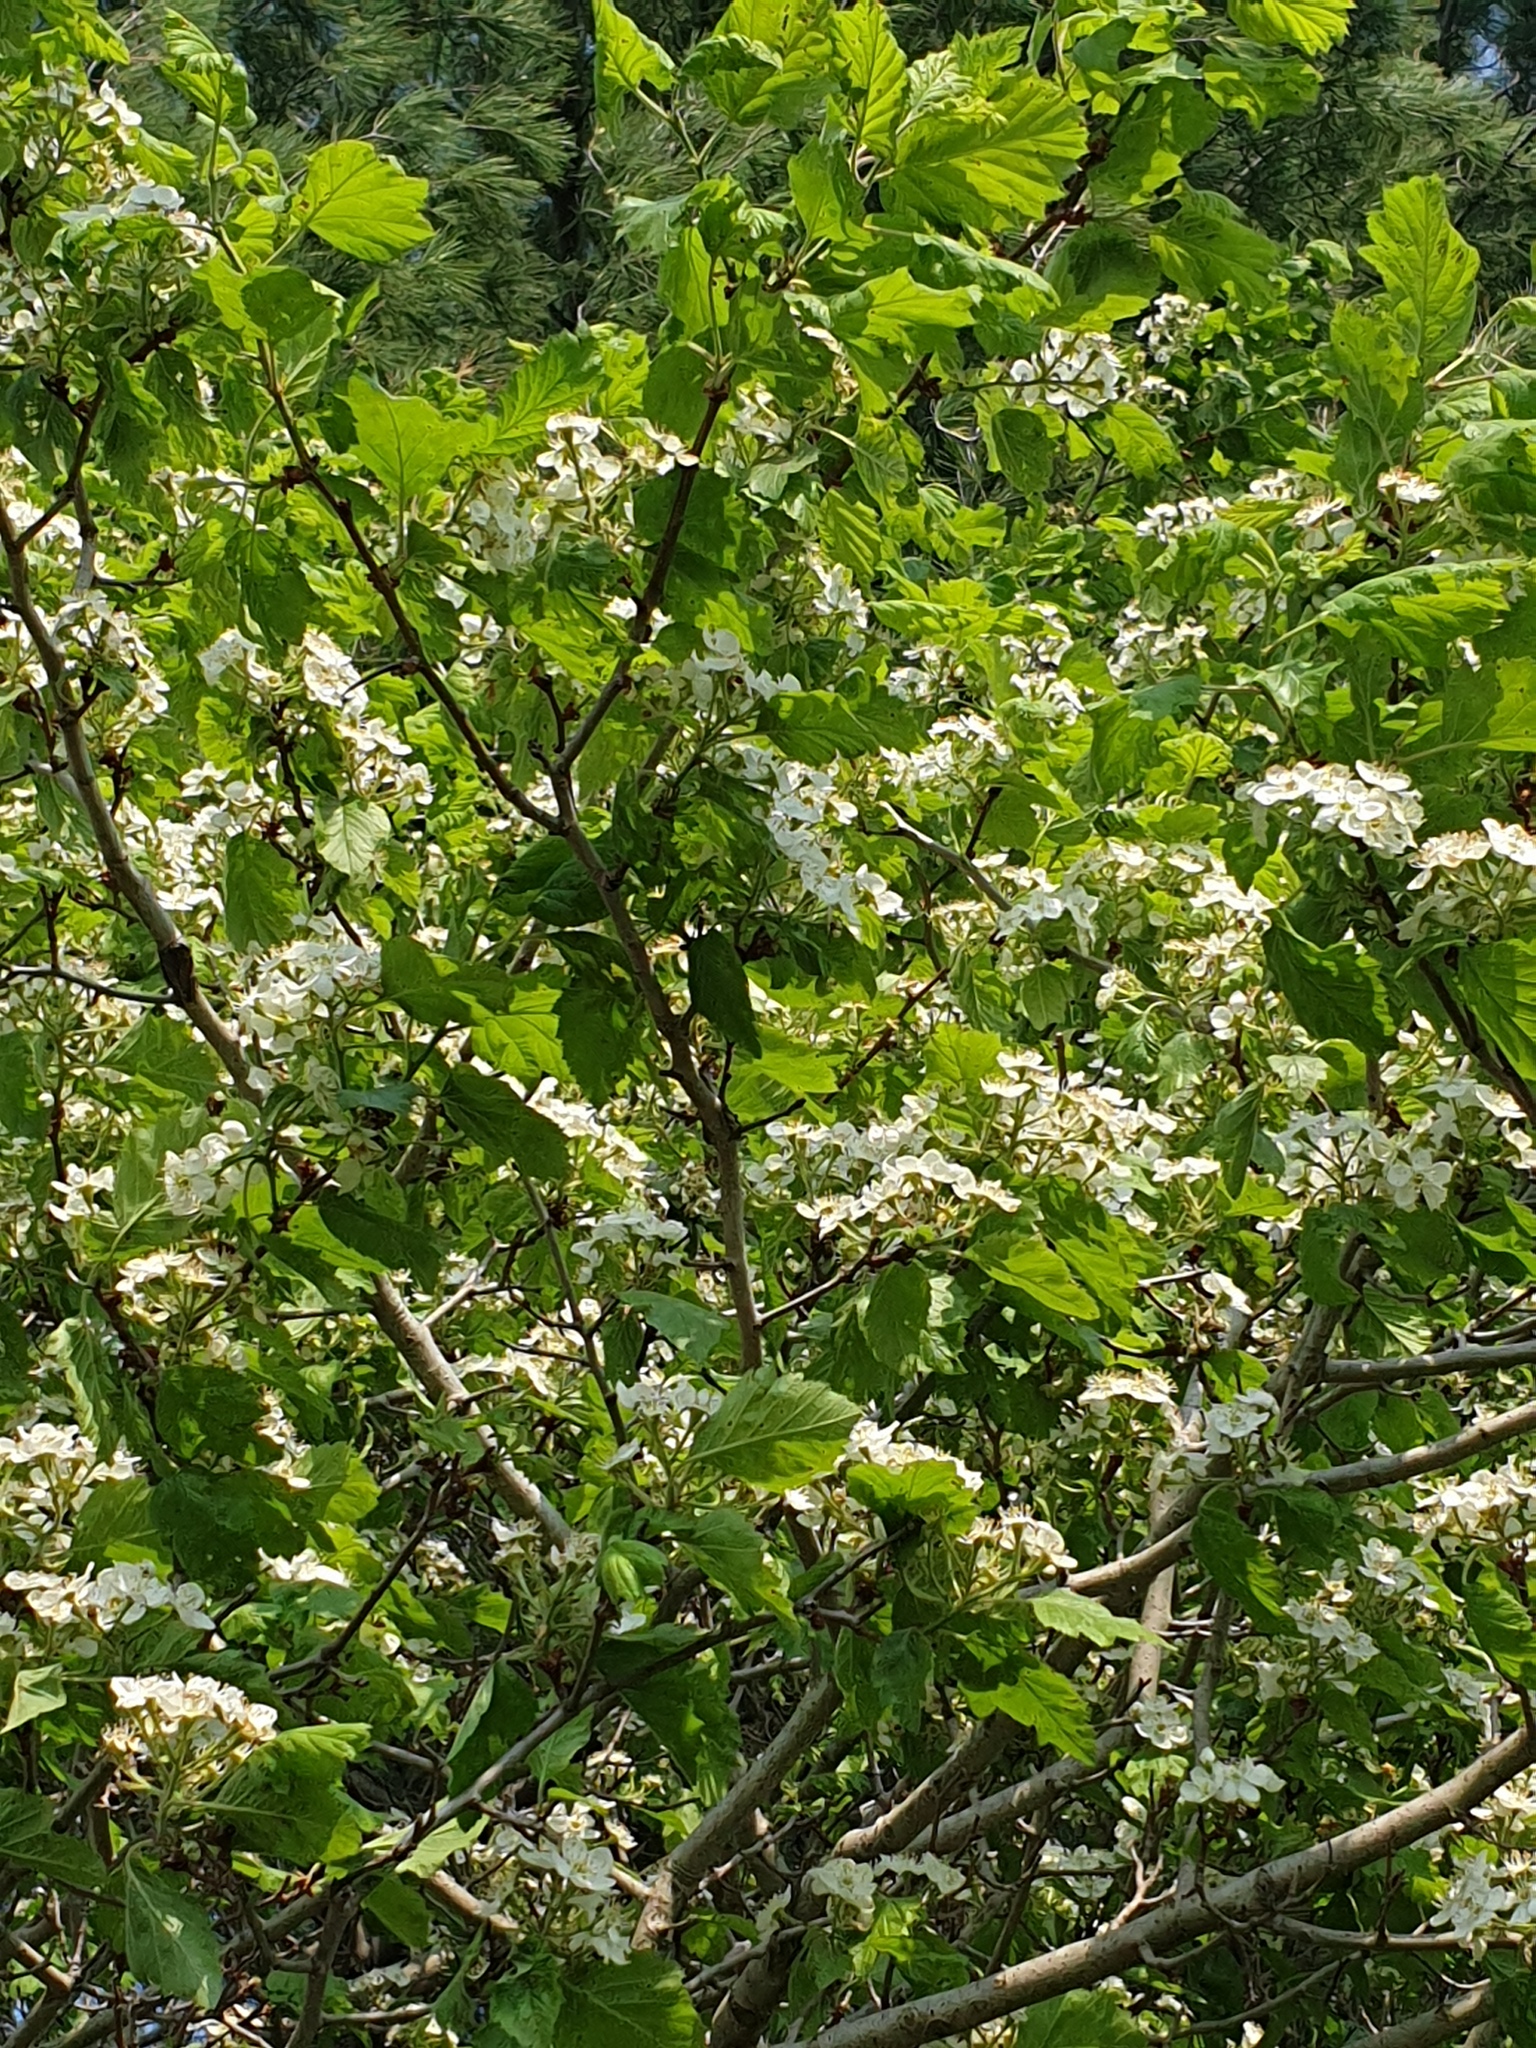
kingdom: Plantae
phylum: Tracheophyta
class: Magnoliopsida
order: Rosales
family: Rosaceae
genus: Crataegus
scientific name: Crataegus mollis
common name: Downy hawthorn
